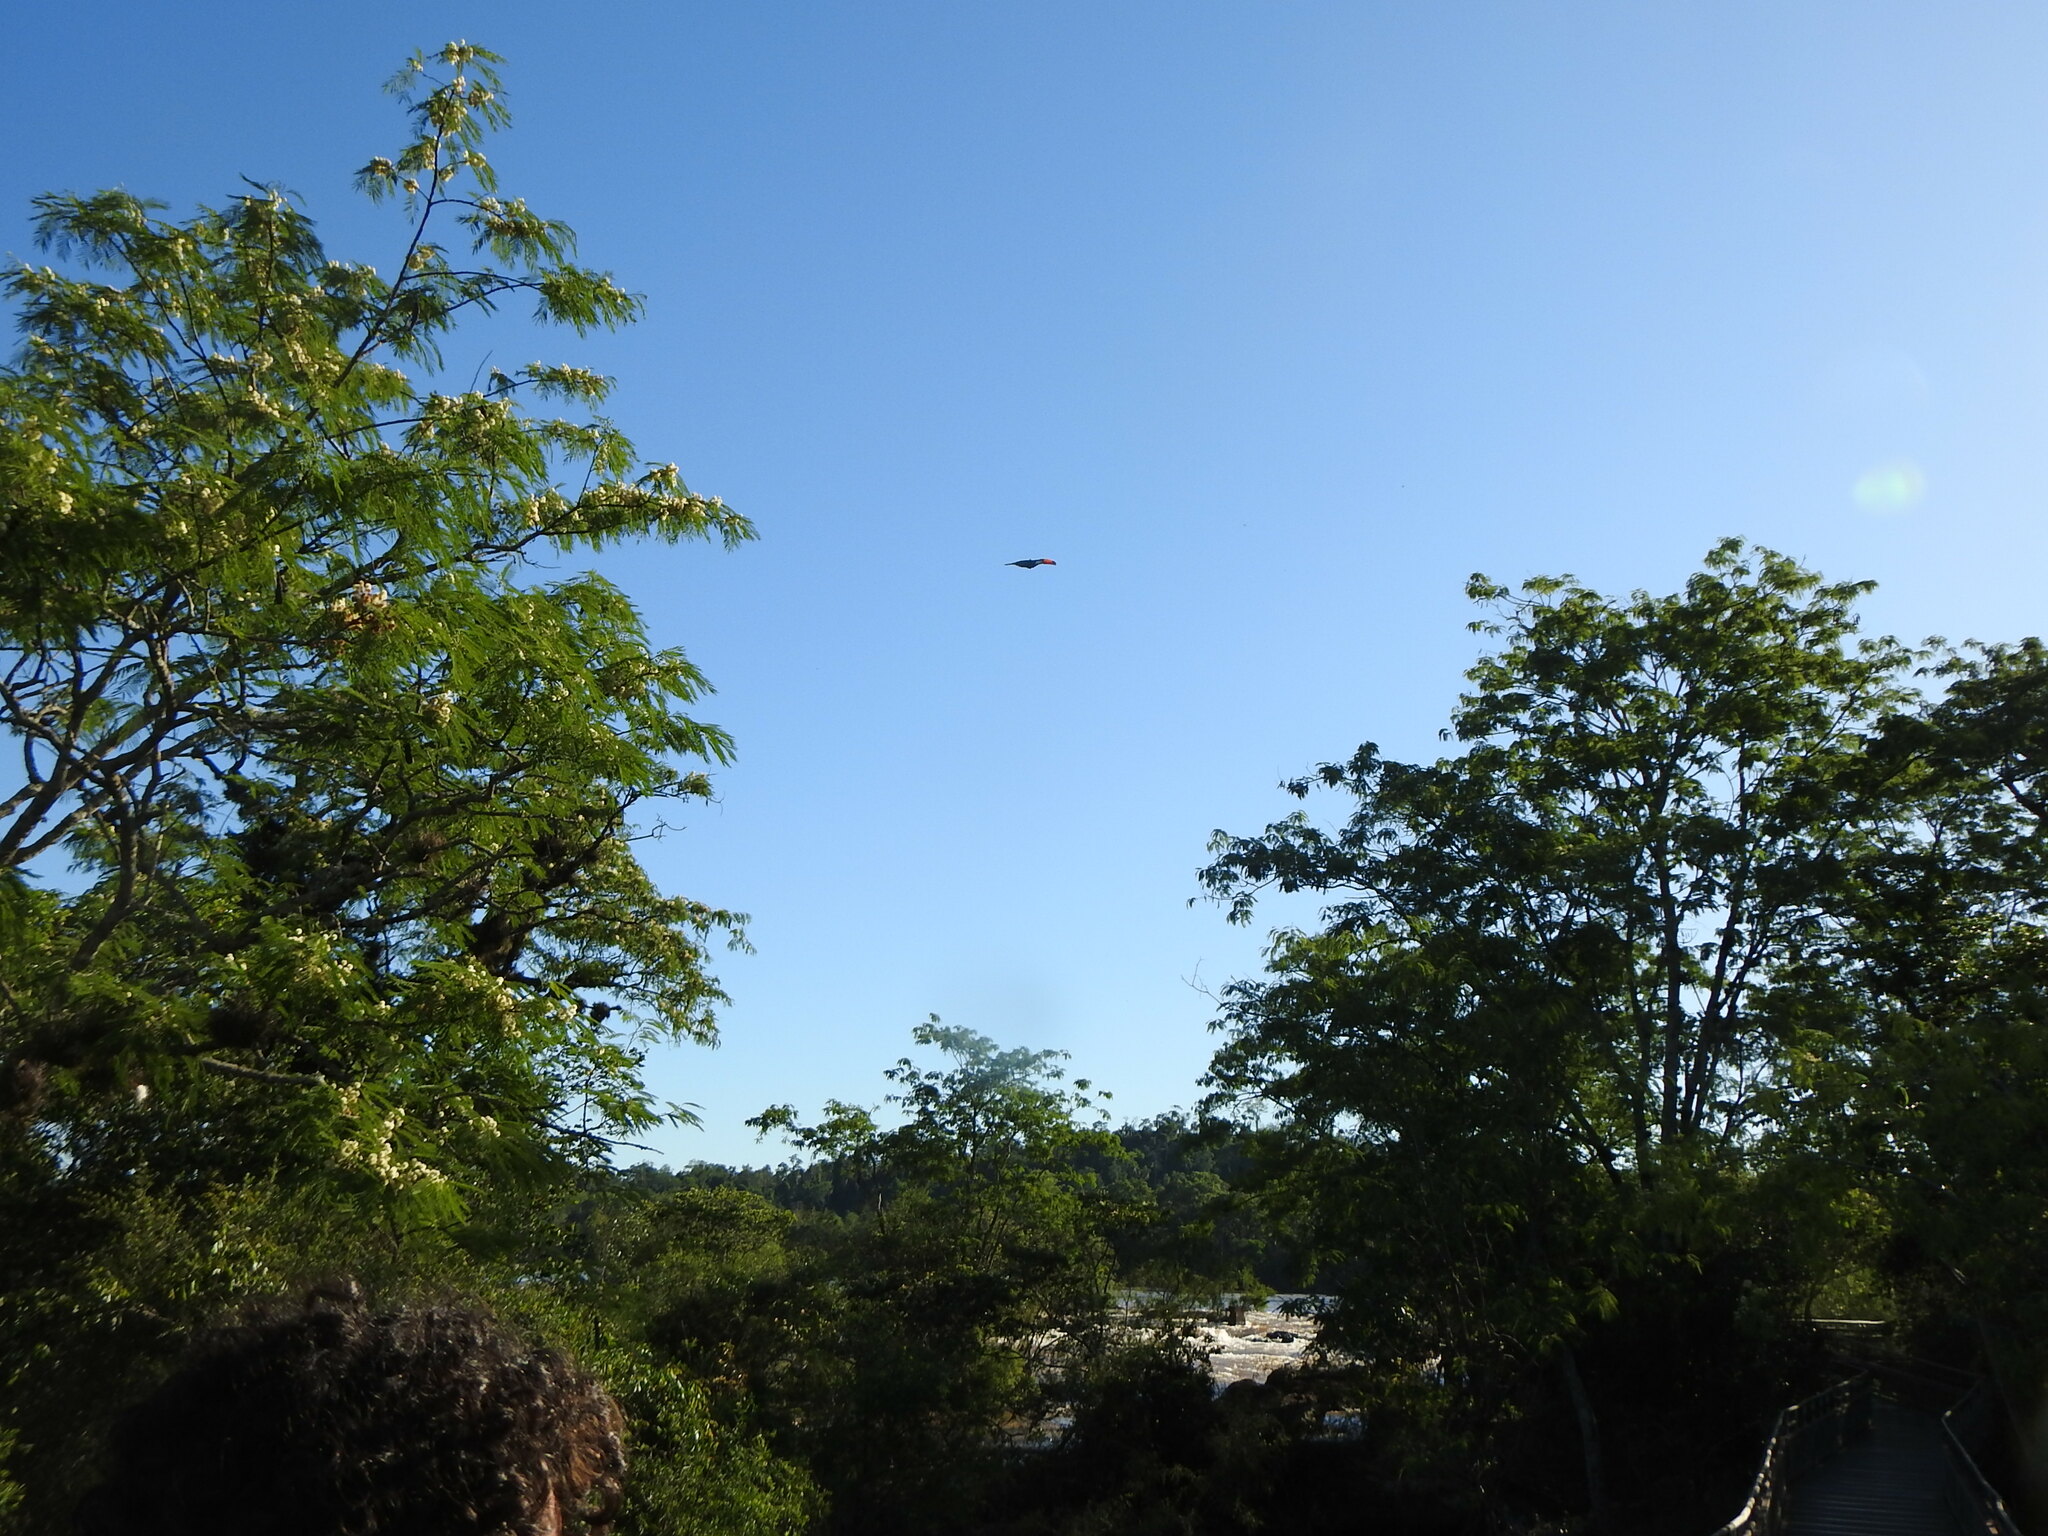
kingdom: Animalia
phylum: Chordata
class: Aves
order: Piciformes
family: Ramphastidae
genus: Ramphastos
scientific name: Ramphastos toco
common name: Toco toucan
